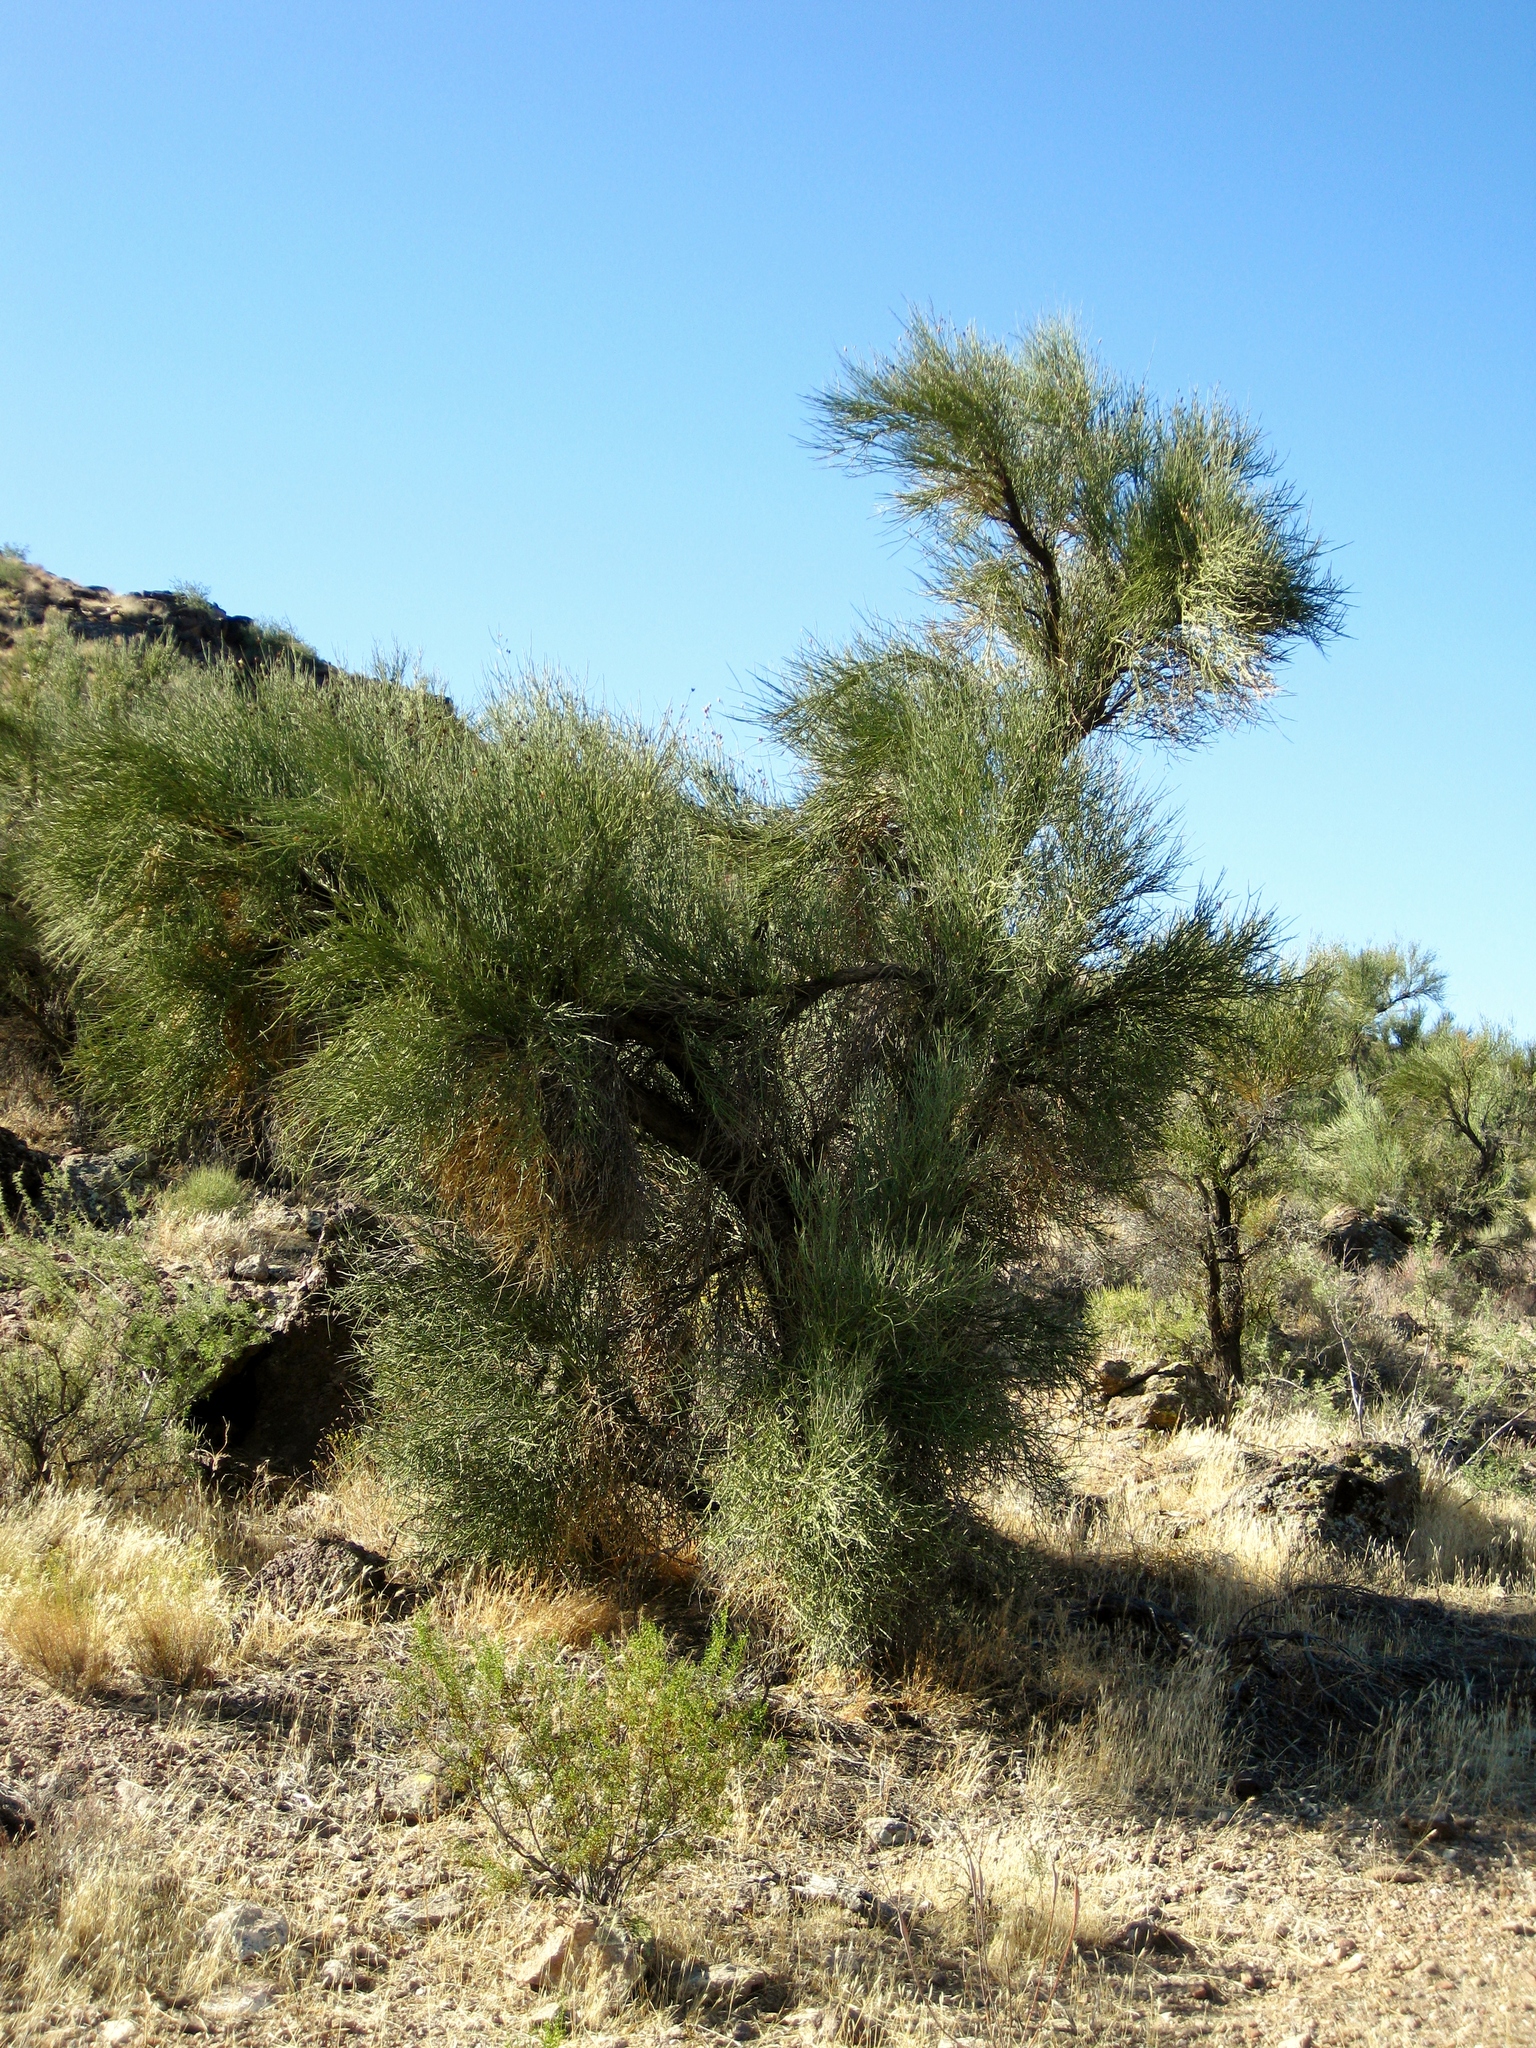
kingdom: Plantae
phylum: Tracheophyta
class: Magnoliopsida
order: Celastrales
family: Celastraceae
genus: Canotia
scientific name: Canotia holacantha
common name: Crucifixion thorns
